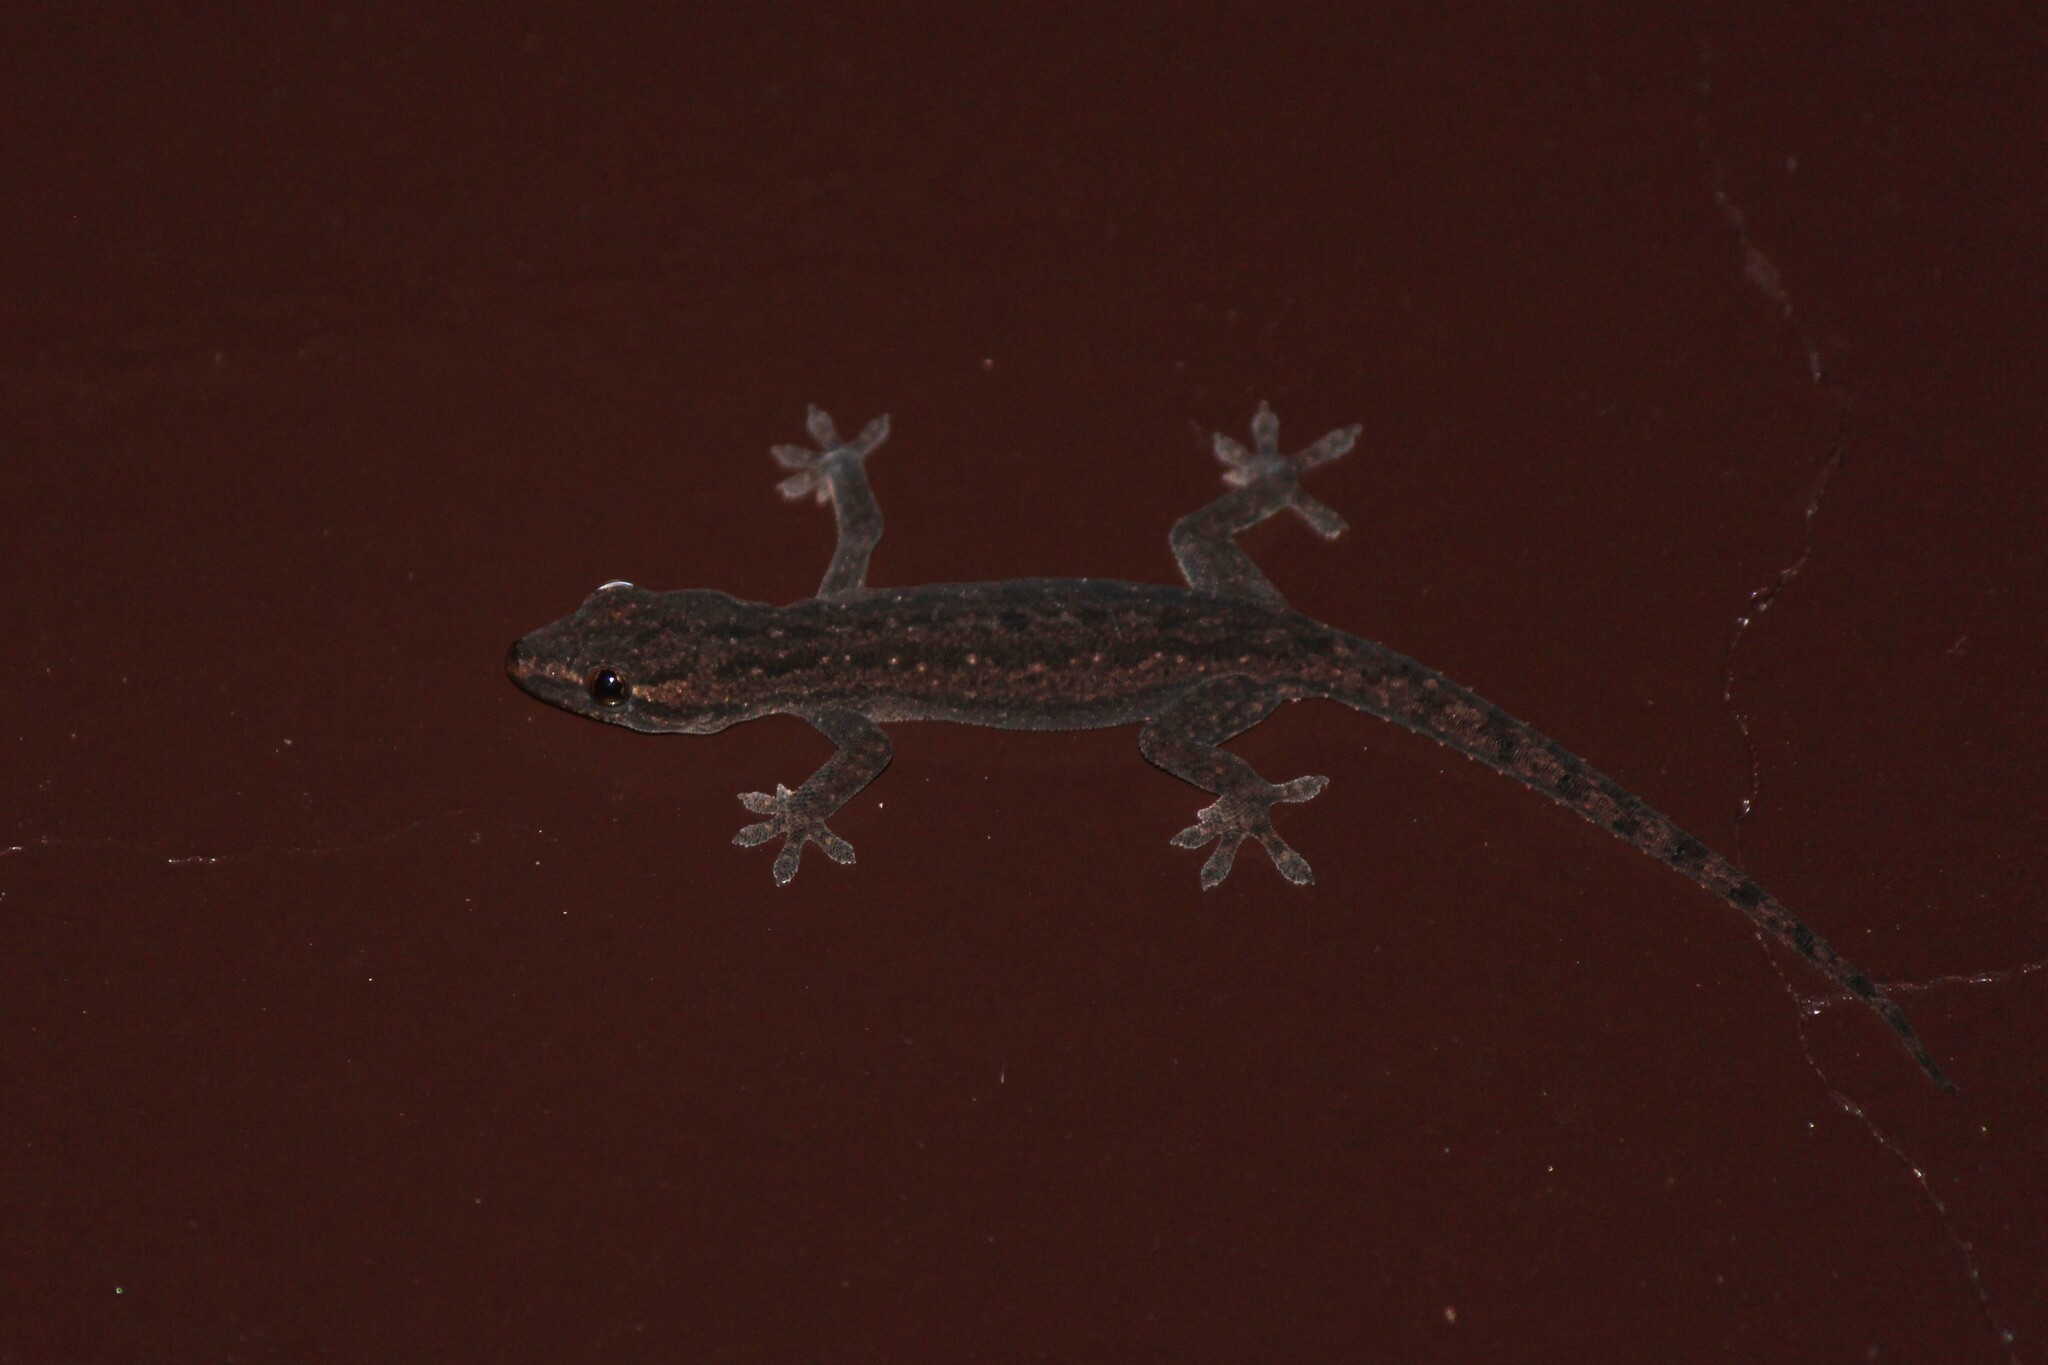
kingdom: Animalia
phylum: Chordata
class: Squamata
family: Gekkonidae
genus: Hemidactylus
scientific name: Hemidactylus frenatus
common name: Common house gecko
